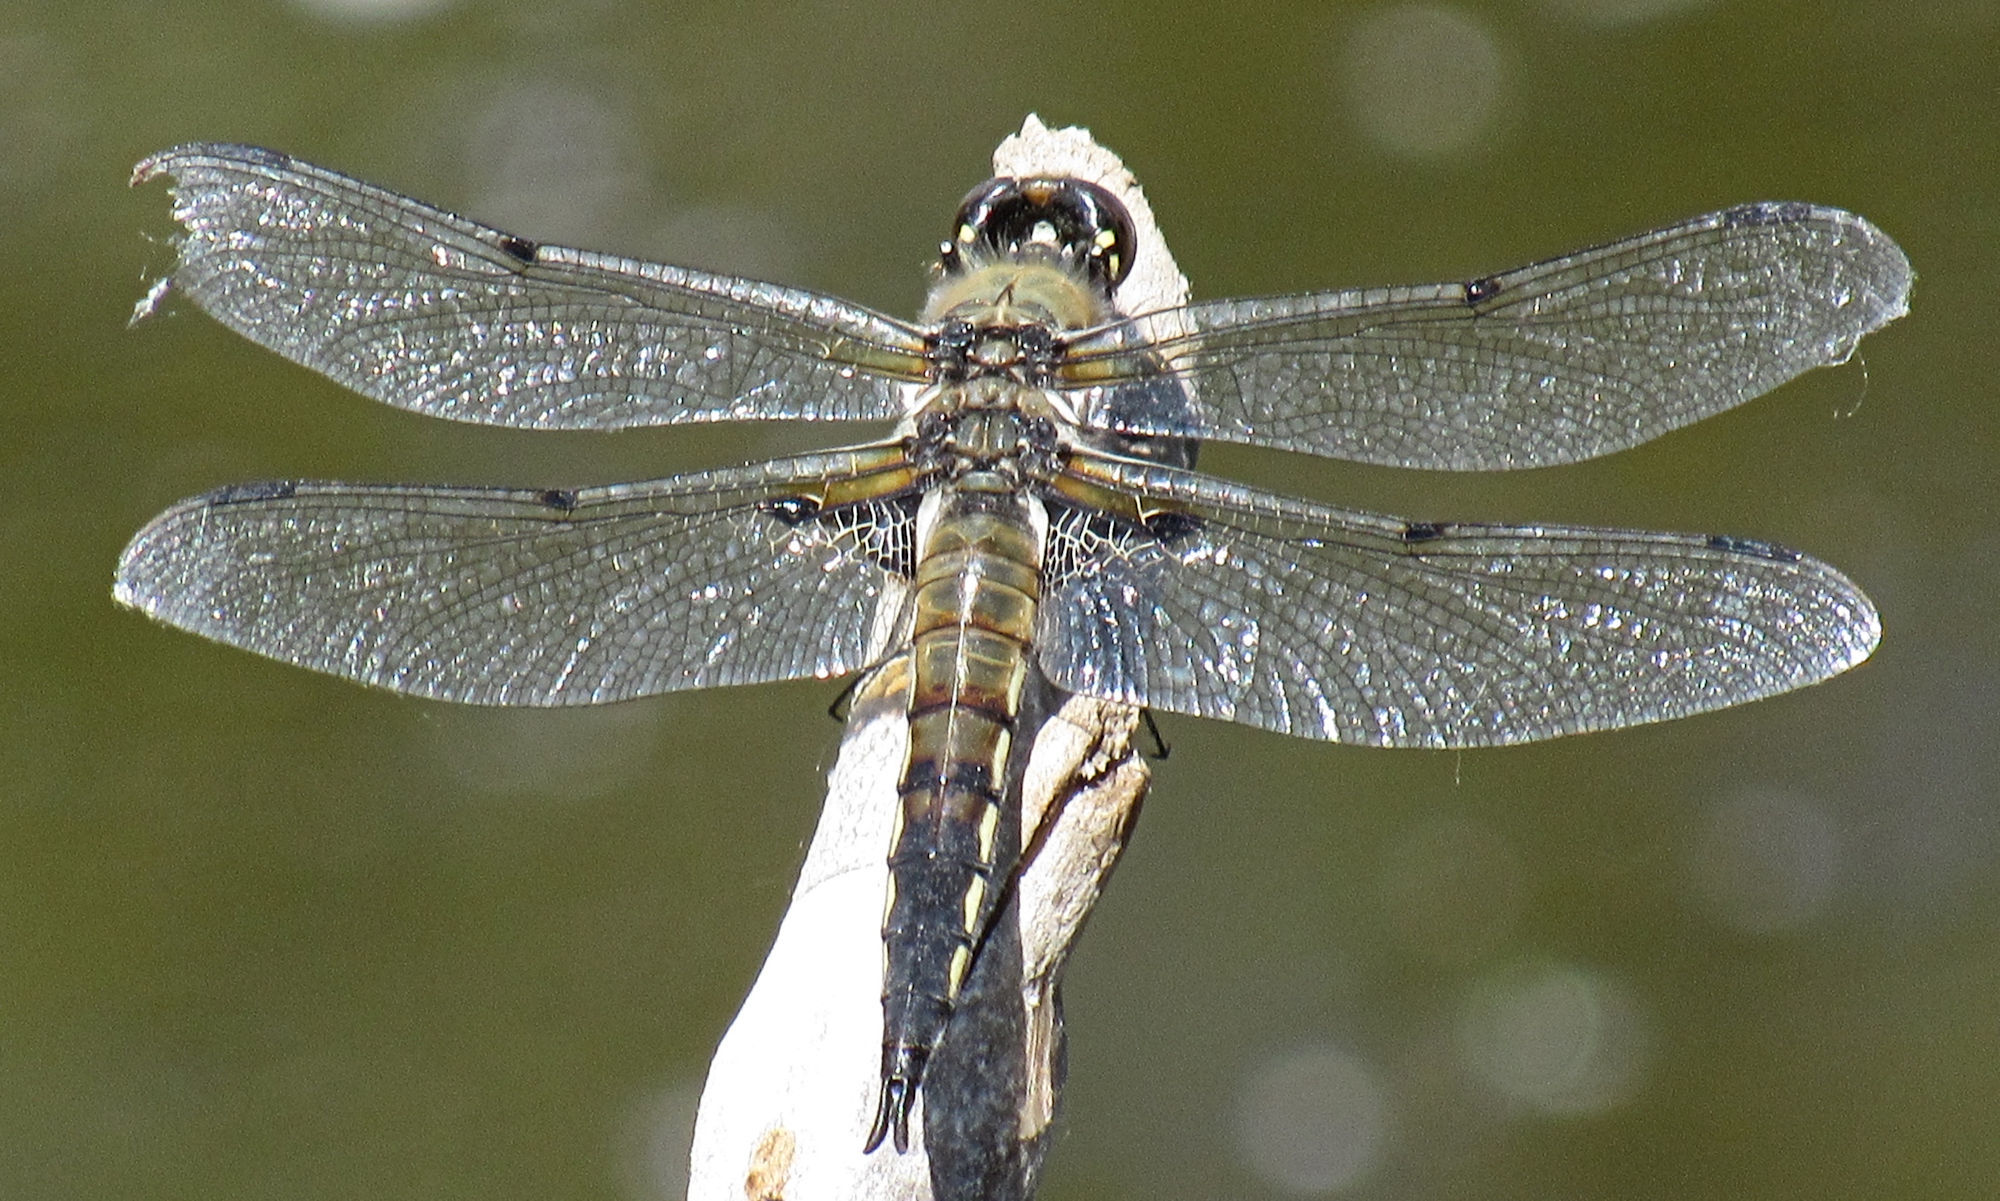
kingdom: Animalia
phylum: Arthropoda
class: Insecta
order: Odonata
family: Libellulidae
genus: Libellula
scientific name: Libellula quadrimaculata
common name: Four-spotted chaser
